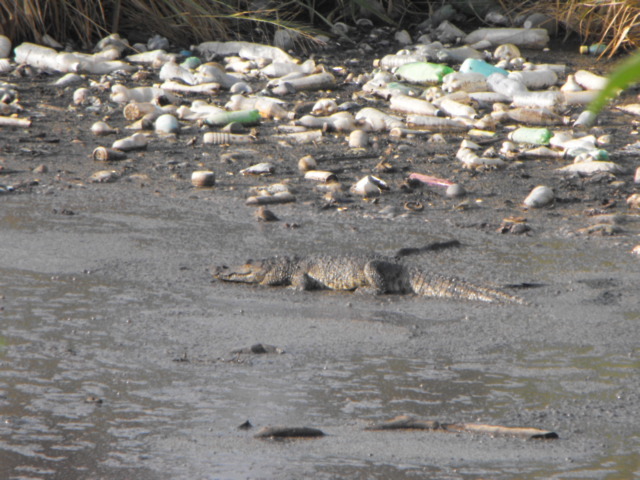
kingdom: Animalia
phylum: Chordata
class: Crocodylia
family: Crocodylidae
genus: Crocodylus
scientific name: Crocodylus moreletii
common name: Morelet's crocodile
